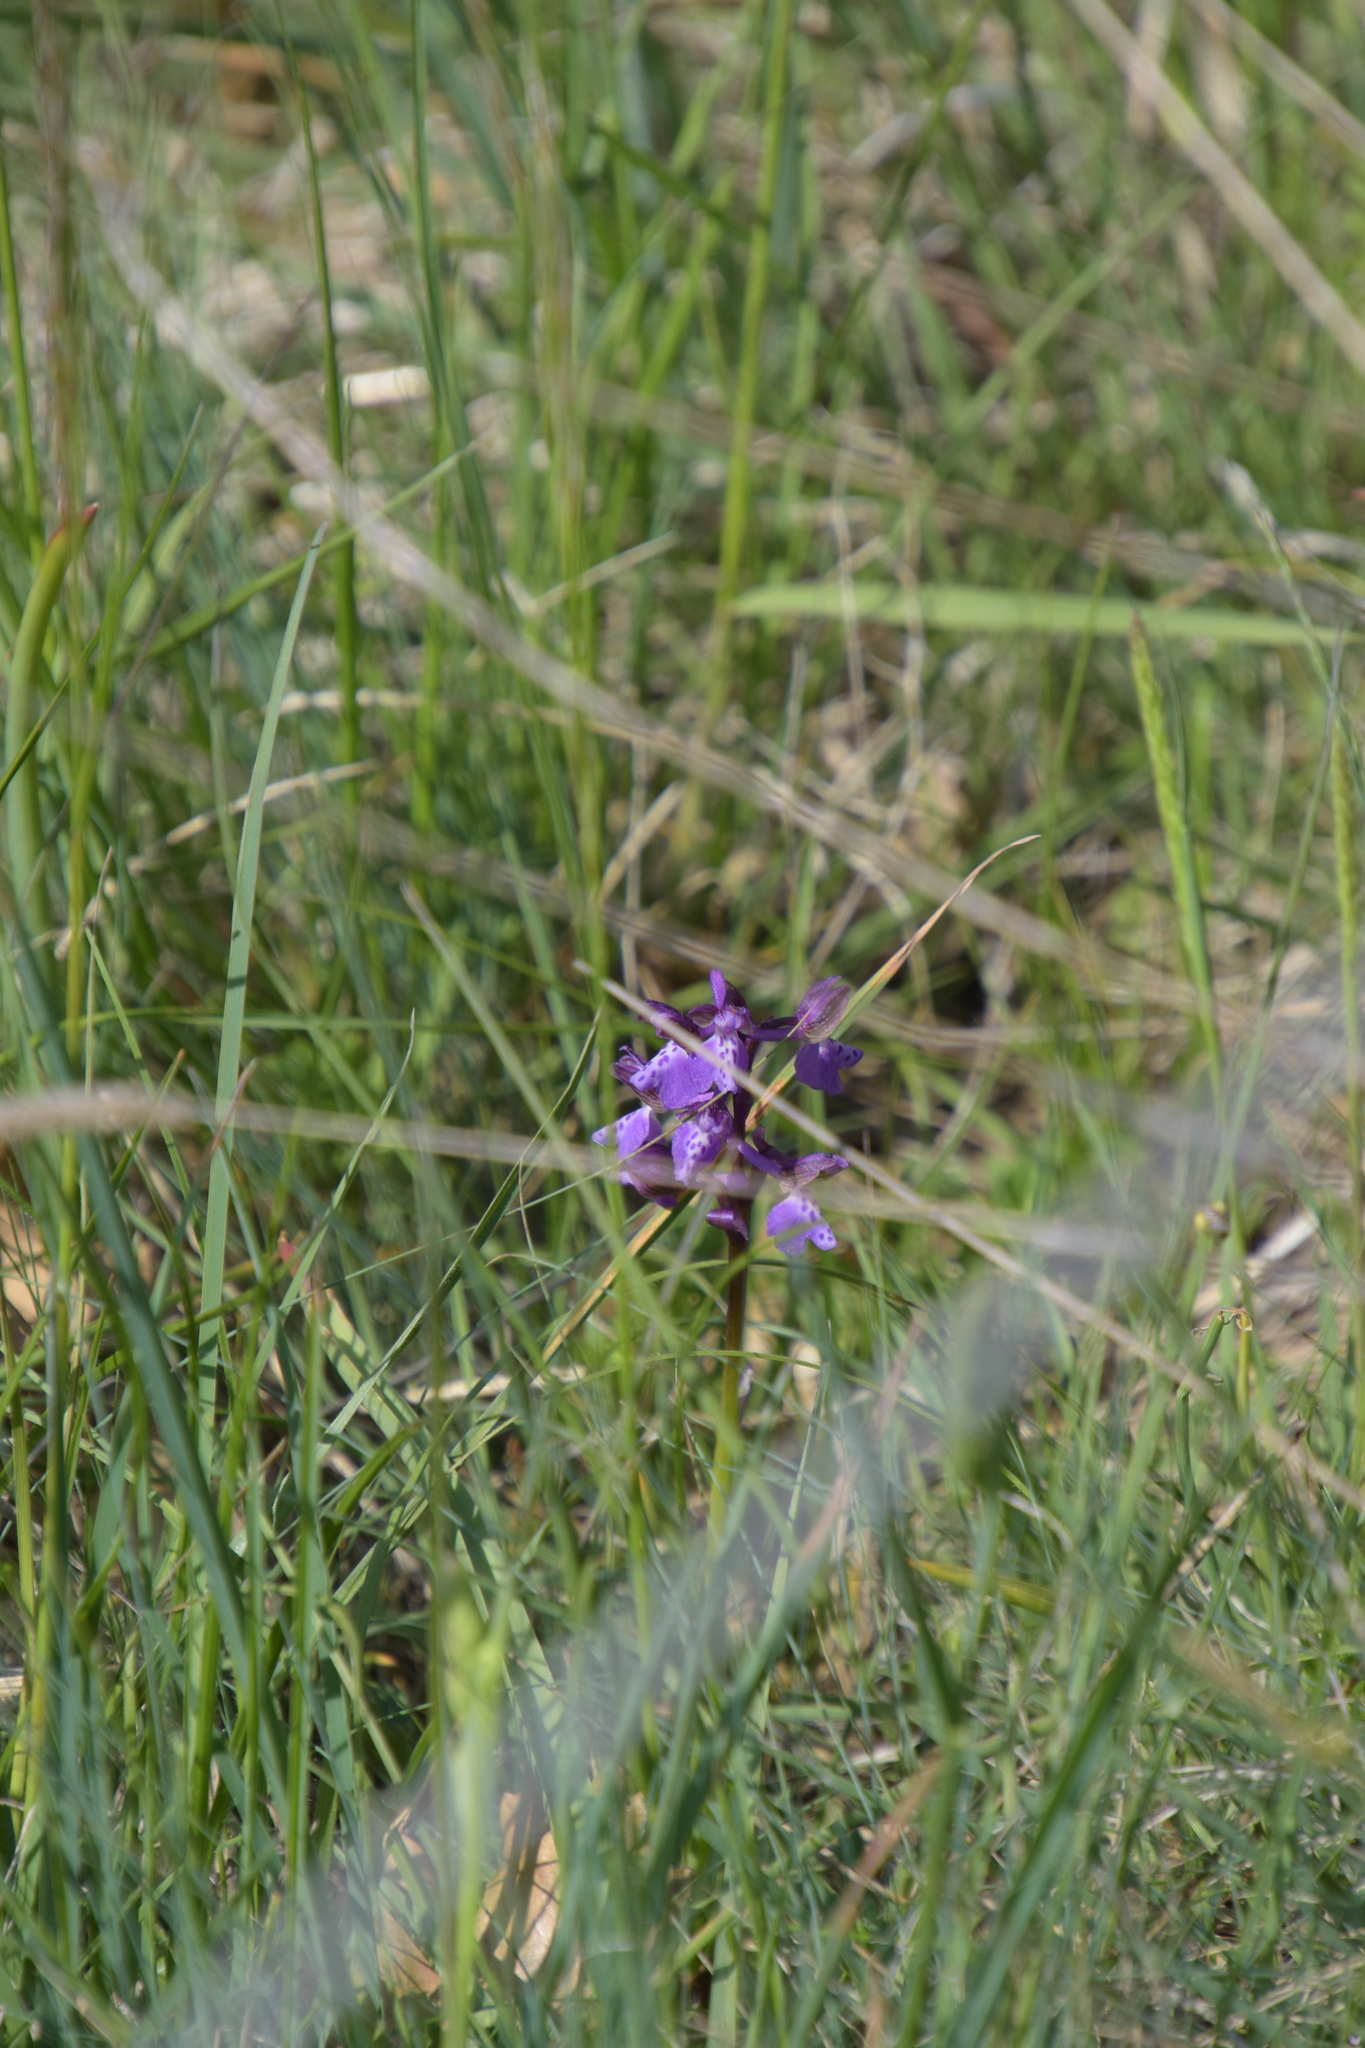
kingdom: Plantae
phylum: Tracheophyta
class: Liliopsida
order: Asparagales
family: Orchidaceae
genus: Anacamptis
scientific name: Anacamptis morio
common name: Green-winged orchid
